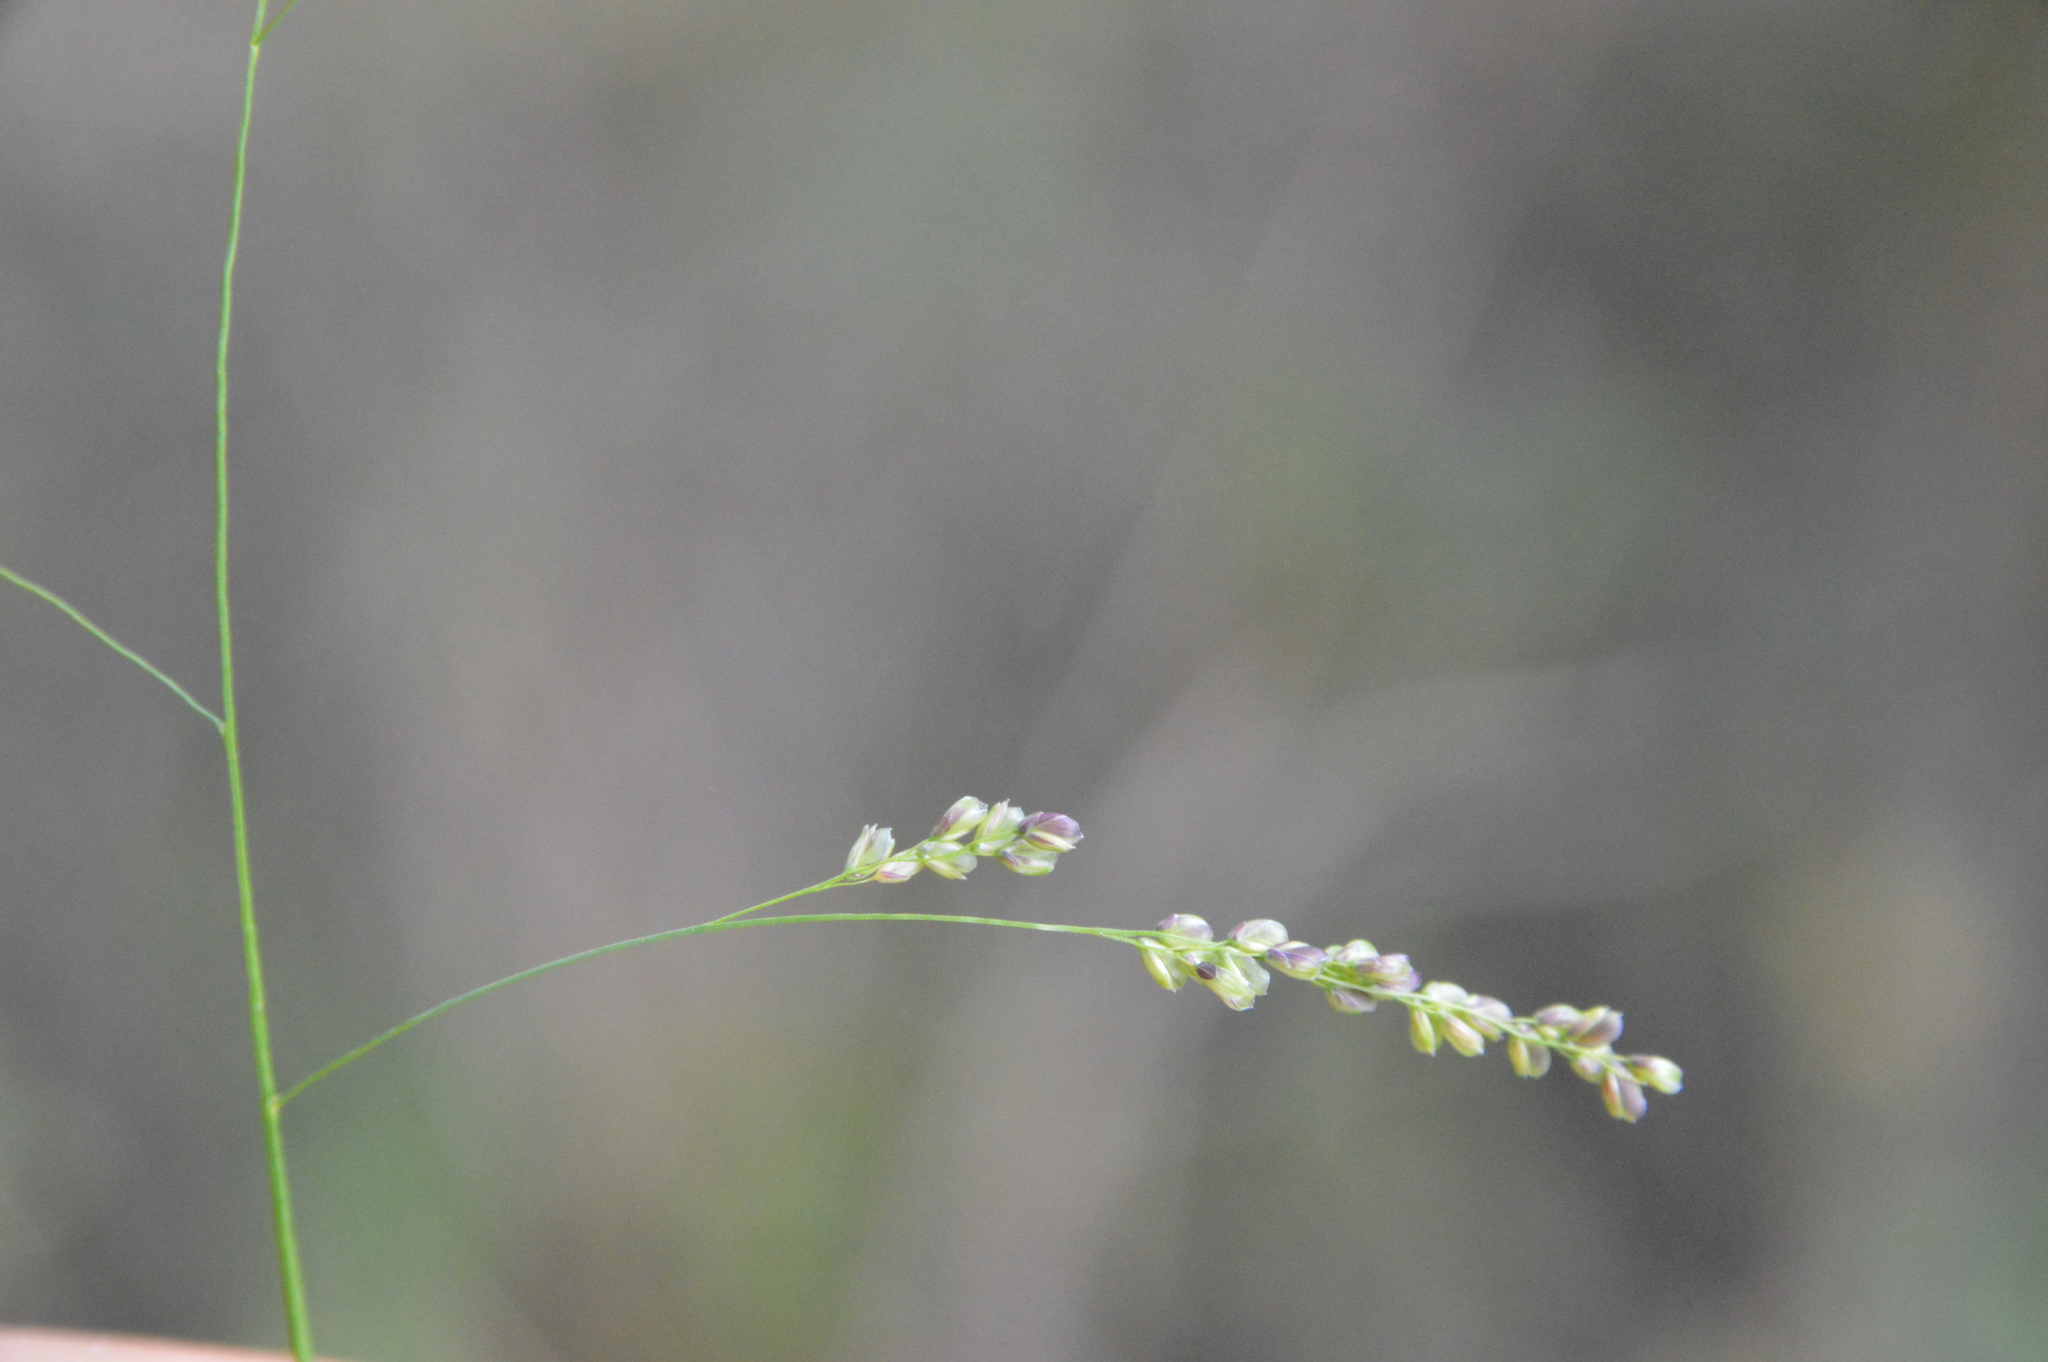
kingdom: Plantae
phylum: Tracheophyta
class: Liliopsida
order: Poales
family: Poaceae
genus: Steinchisma
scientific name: Steinchisma hians
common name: Gaping panic grass
